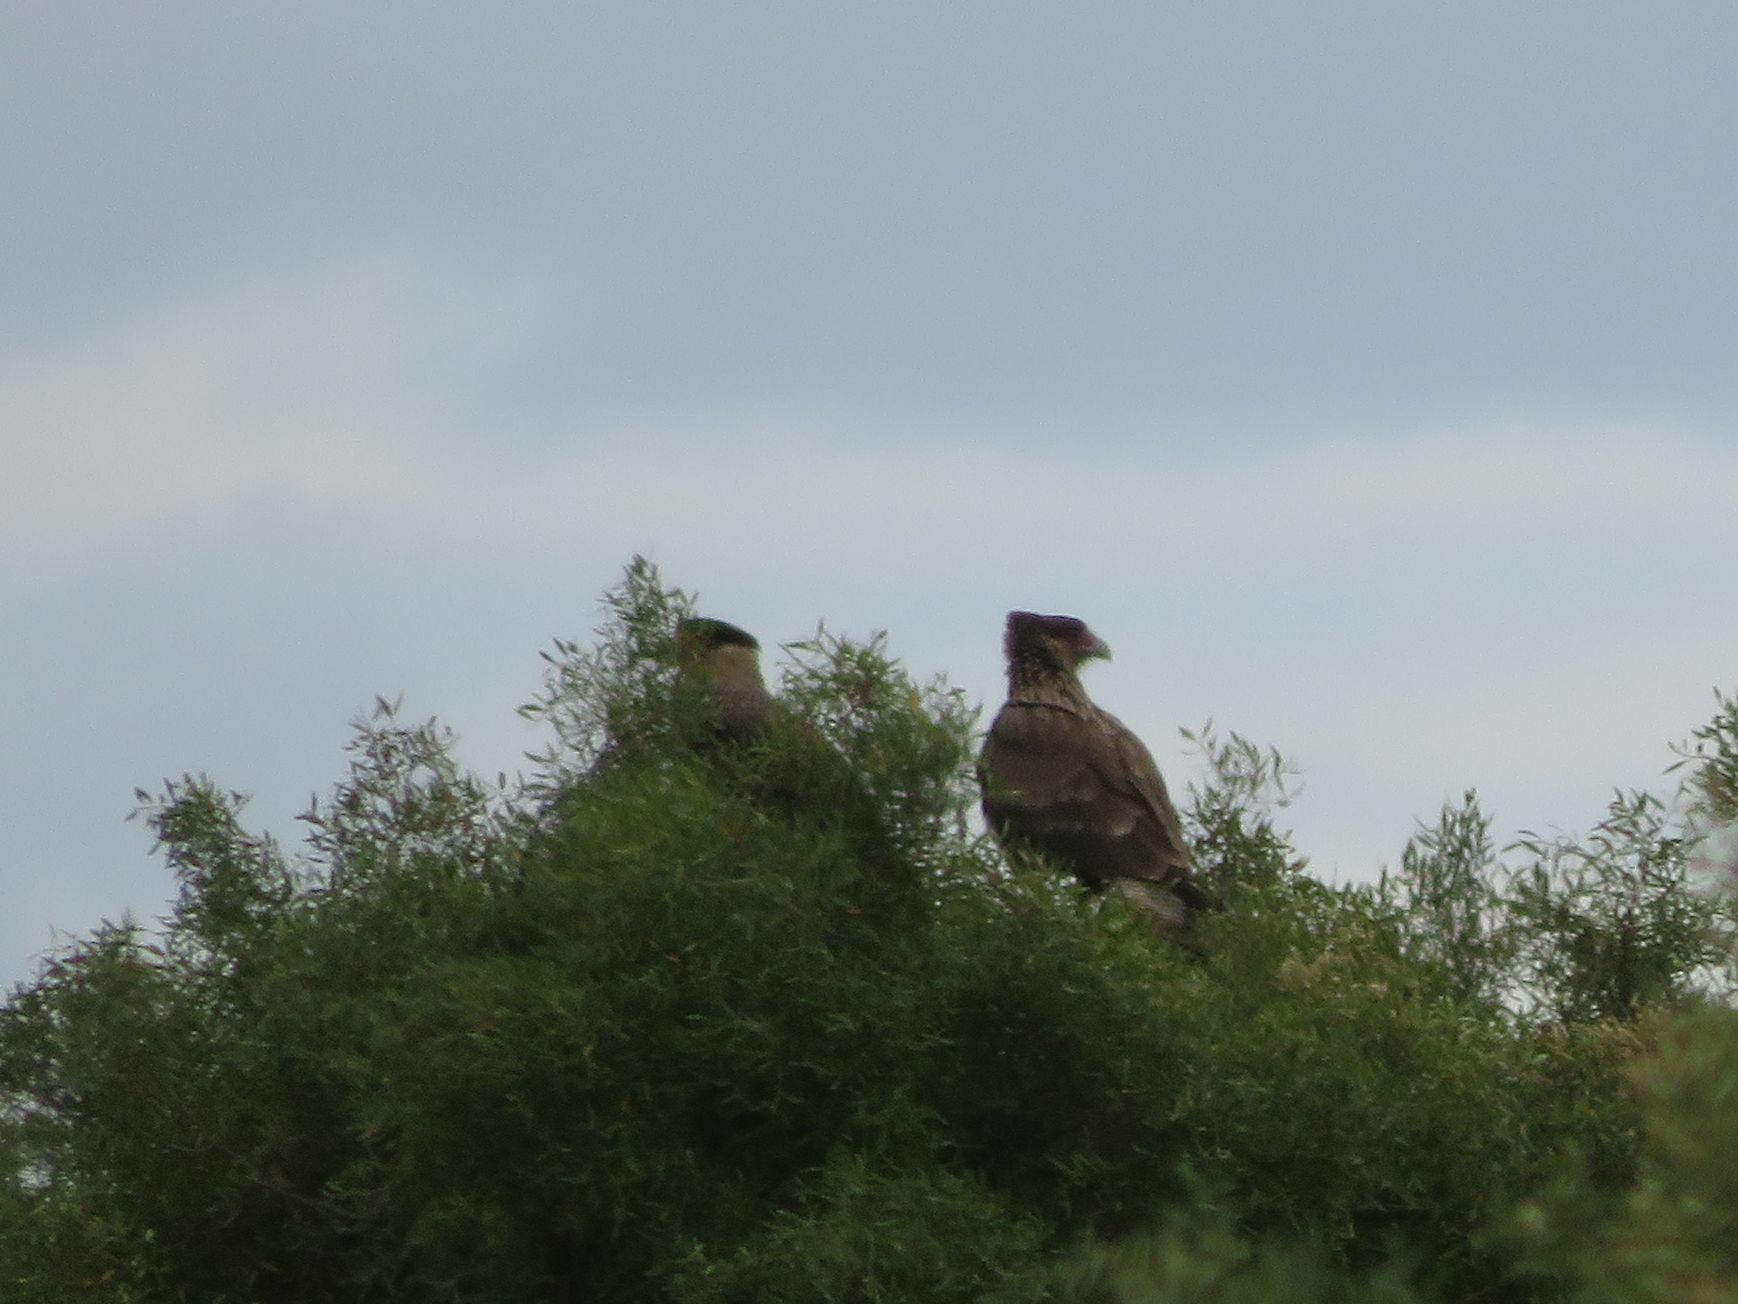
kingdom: Animalia
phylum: Chordata
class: Aves
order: Falconiformes
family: Falconidae
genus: Caracara
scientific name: Caracara plancus
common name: Southern caracara
